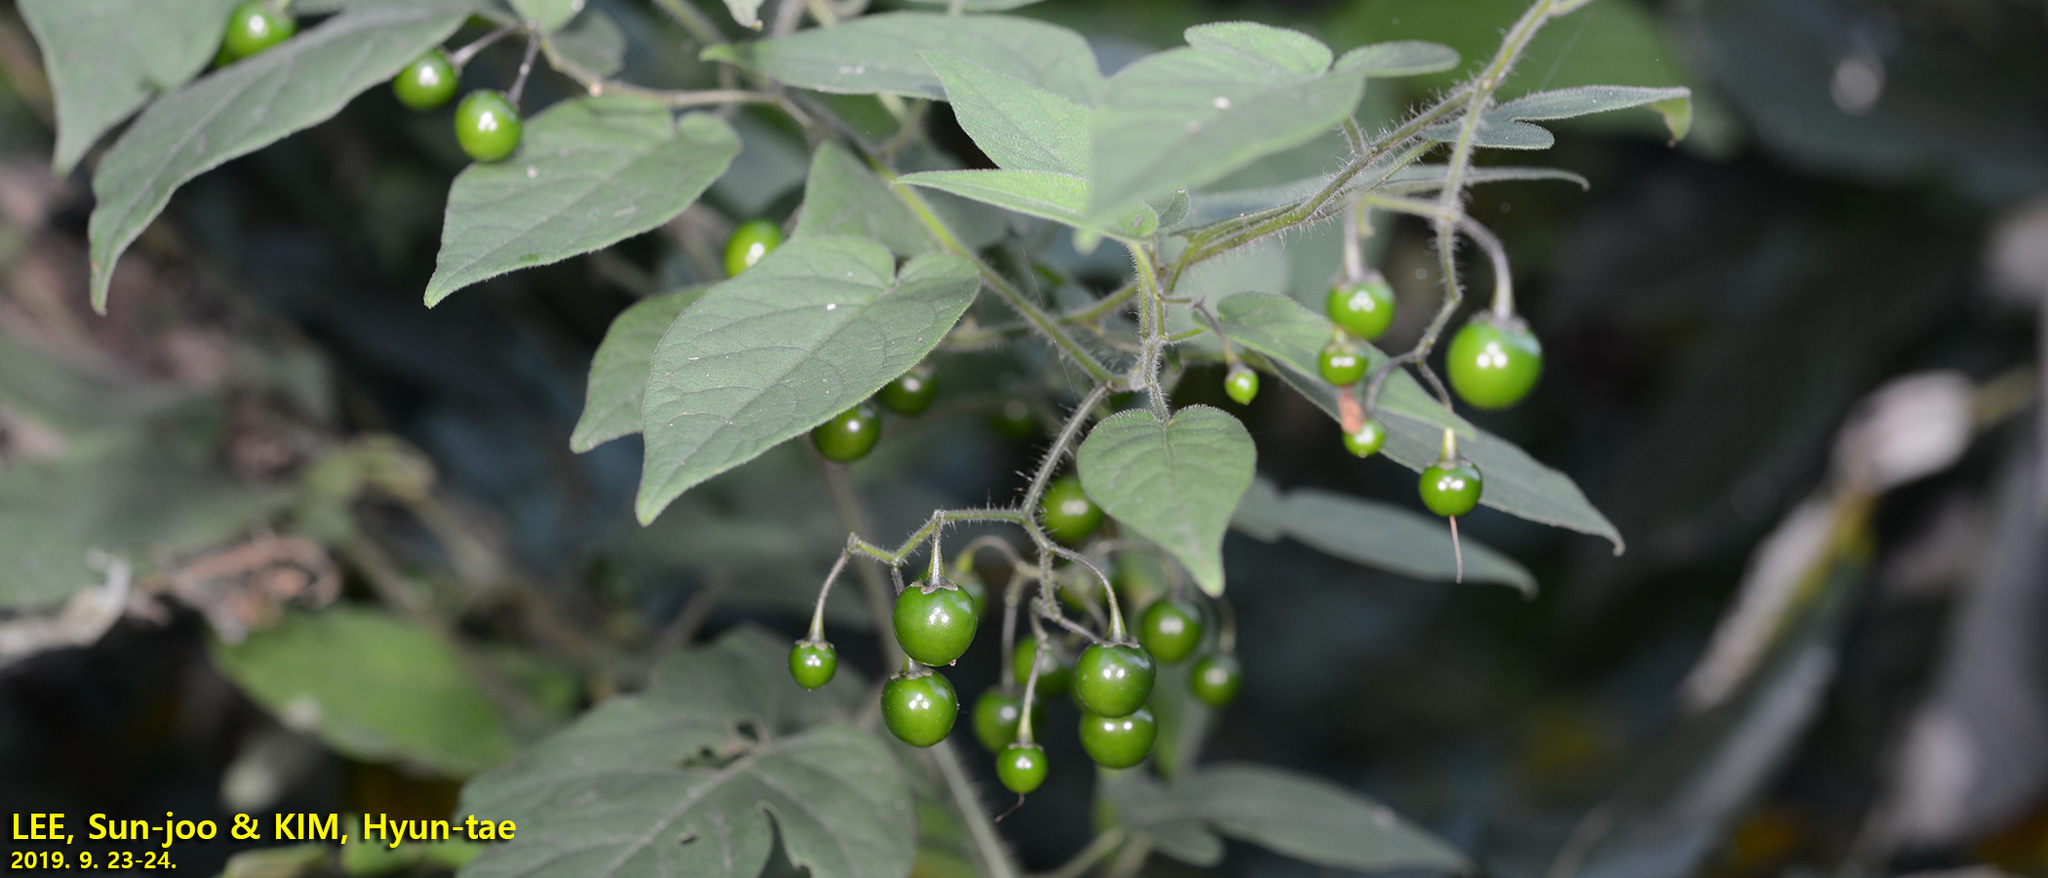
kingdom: Plantae
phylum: Tracheophyta
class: Magnoliopsida
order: Solanales
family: Solanaceae
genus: Solanum
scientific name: Solanum lyratum
